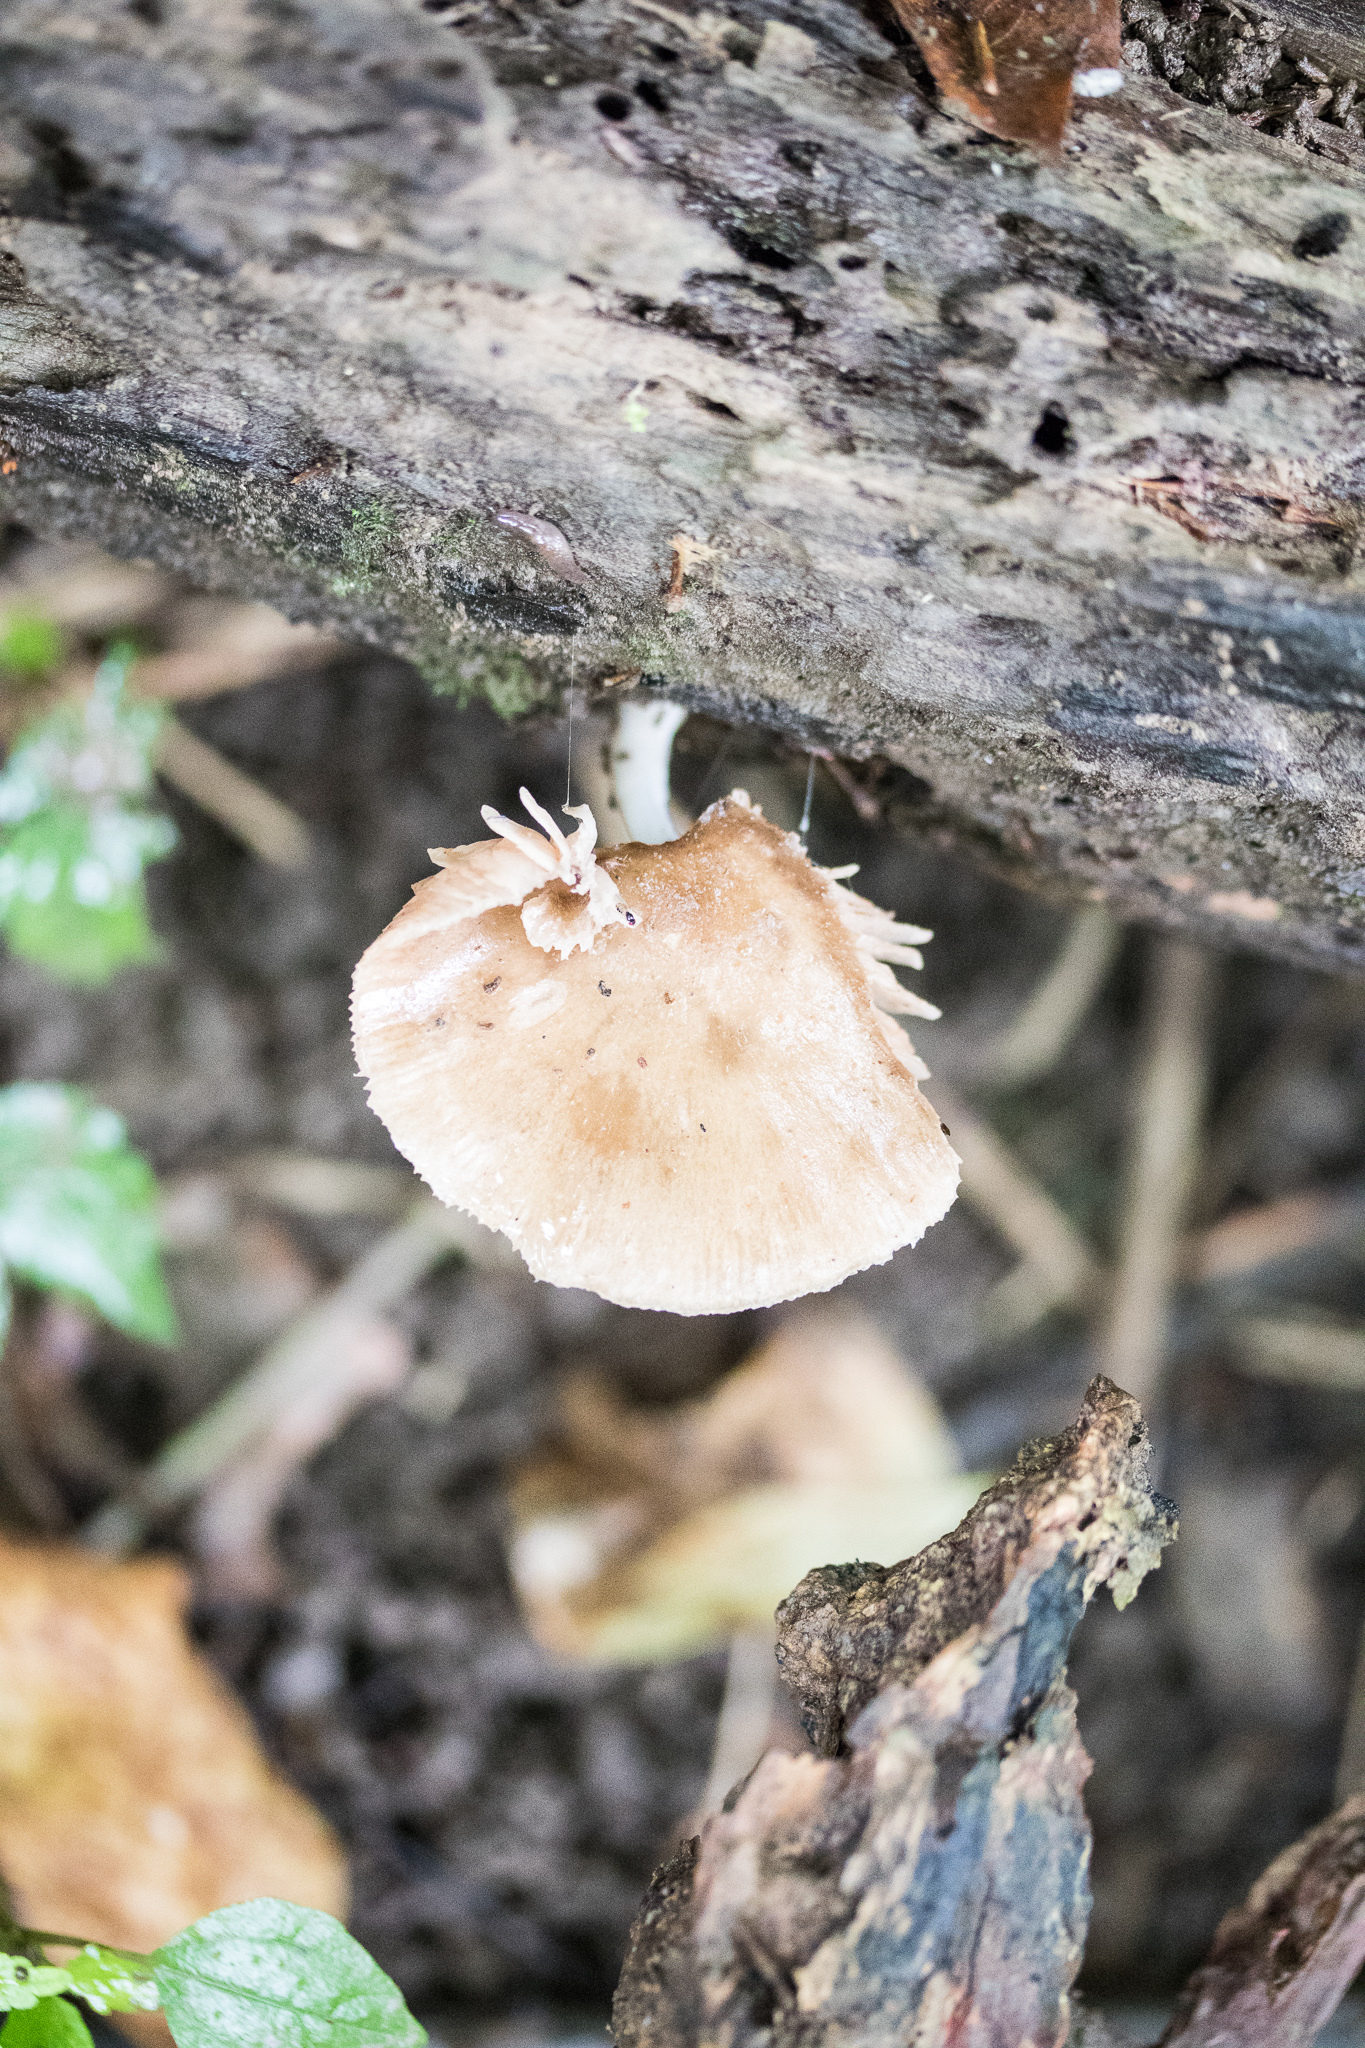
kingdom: Fungi
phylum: Basidiomycota
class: Agaricomycetes
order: Agaricales
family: Pluteaceae
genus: Pluteus
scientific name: Pluteus cervinus
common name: Deer shield
